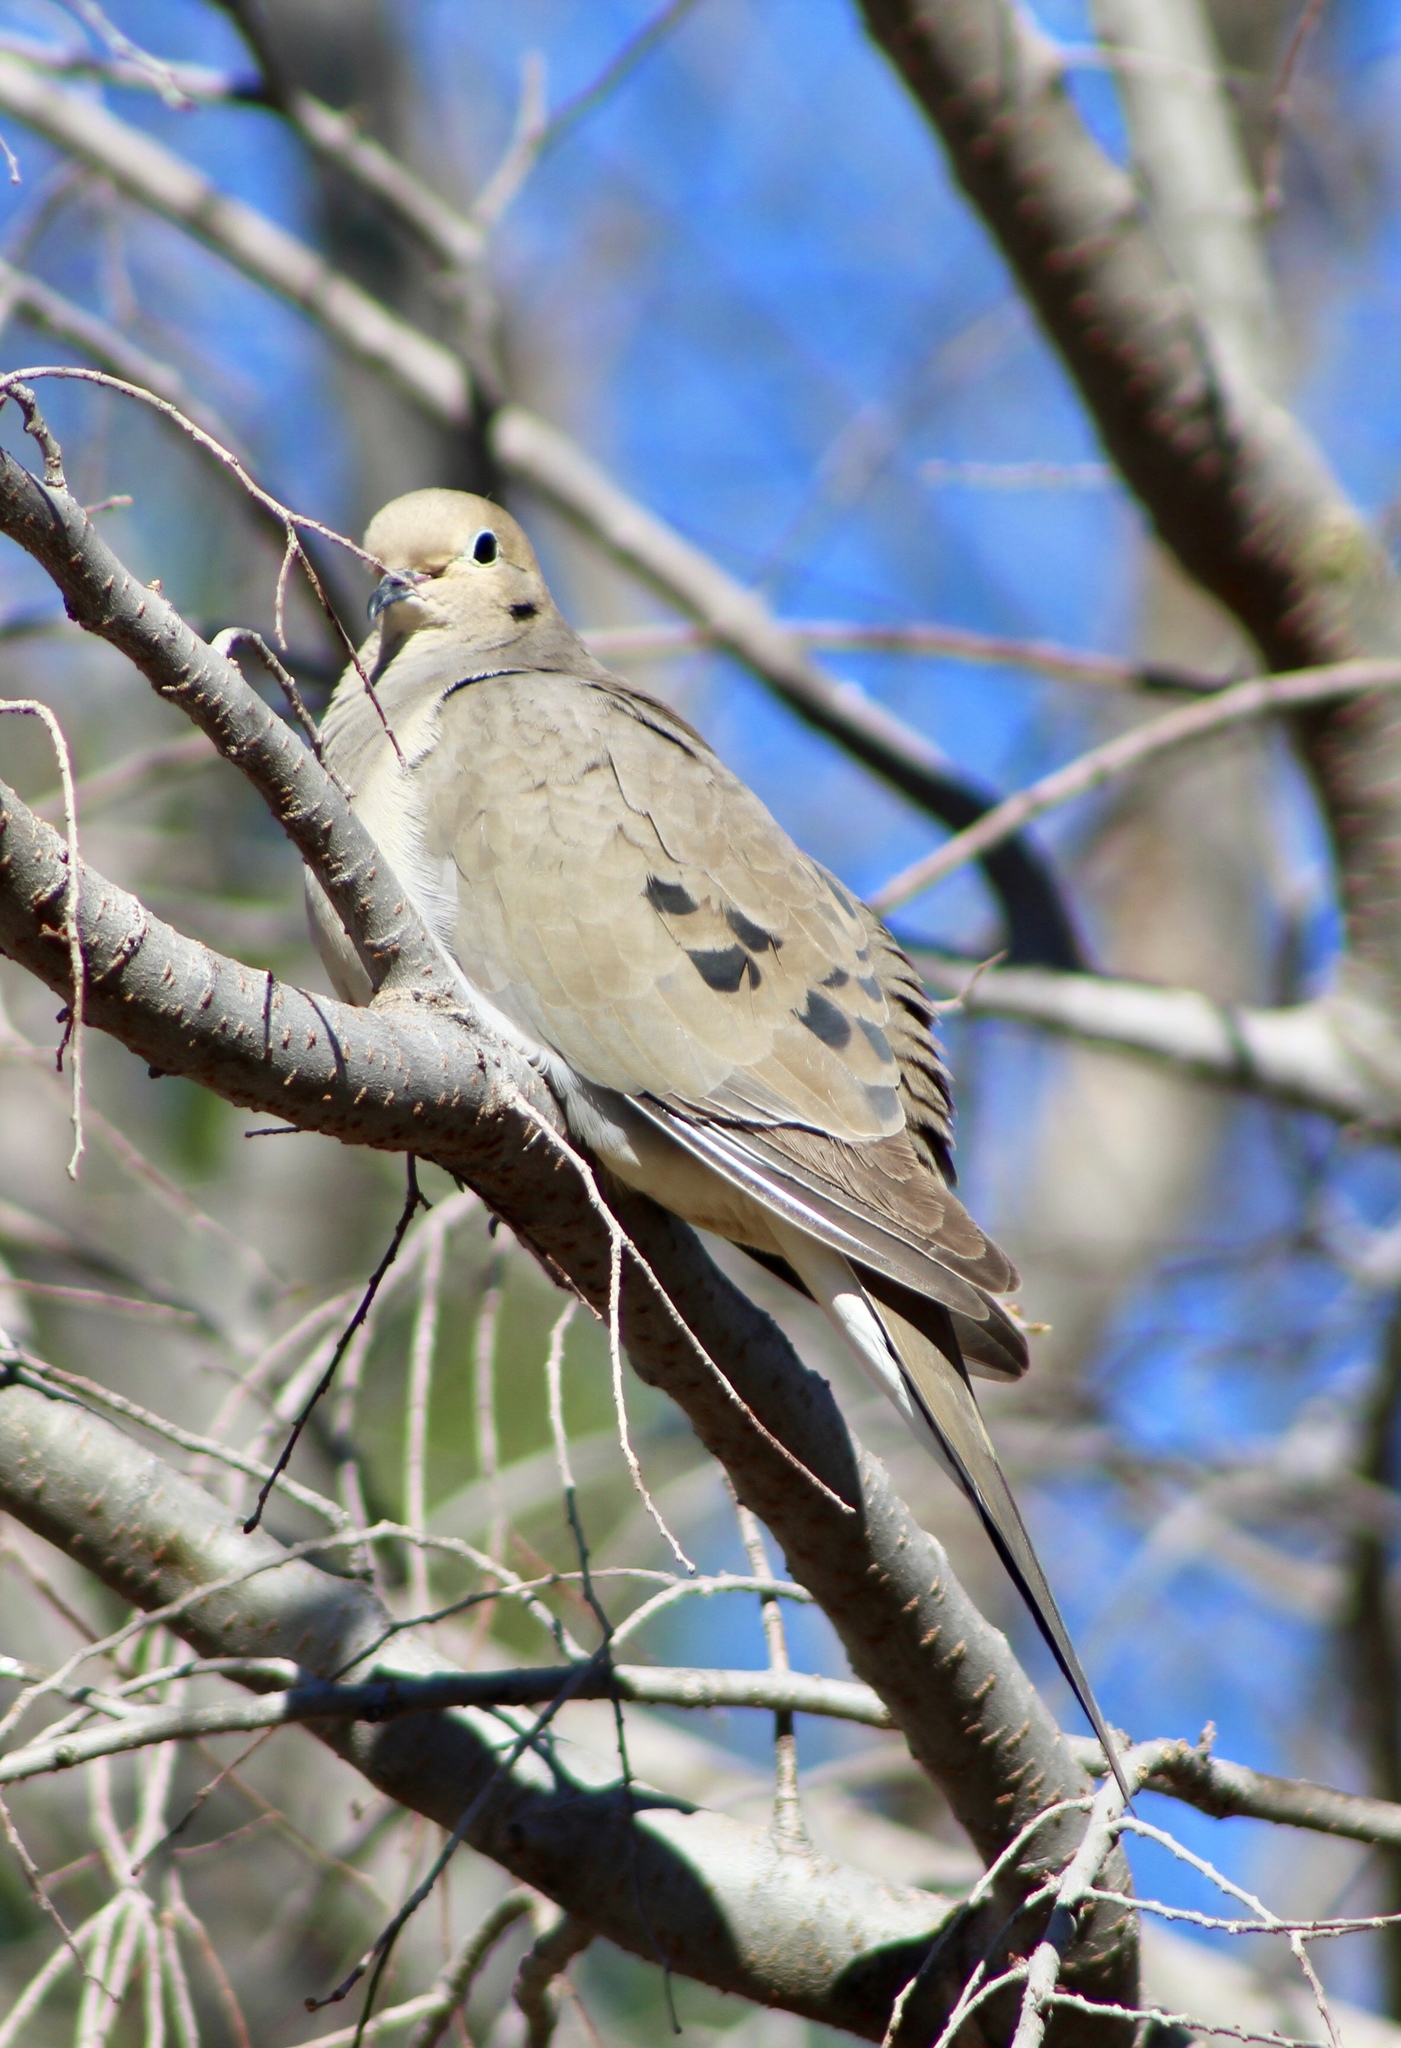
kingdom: Animalia
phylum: Chordata
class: Aves
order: Columbiformes
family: Columbidae
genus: Zenaida
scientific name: Zenaida macroura
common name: Mourning dove
